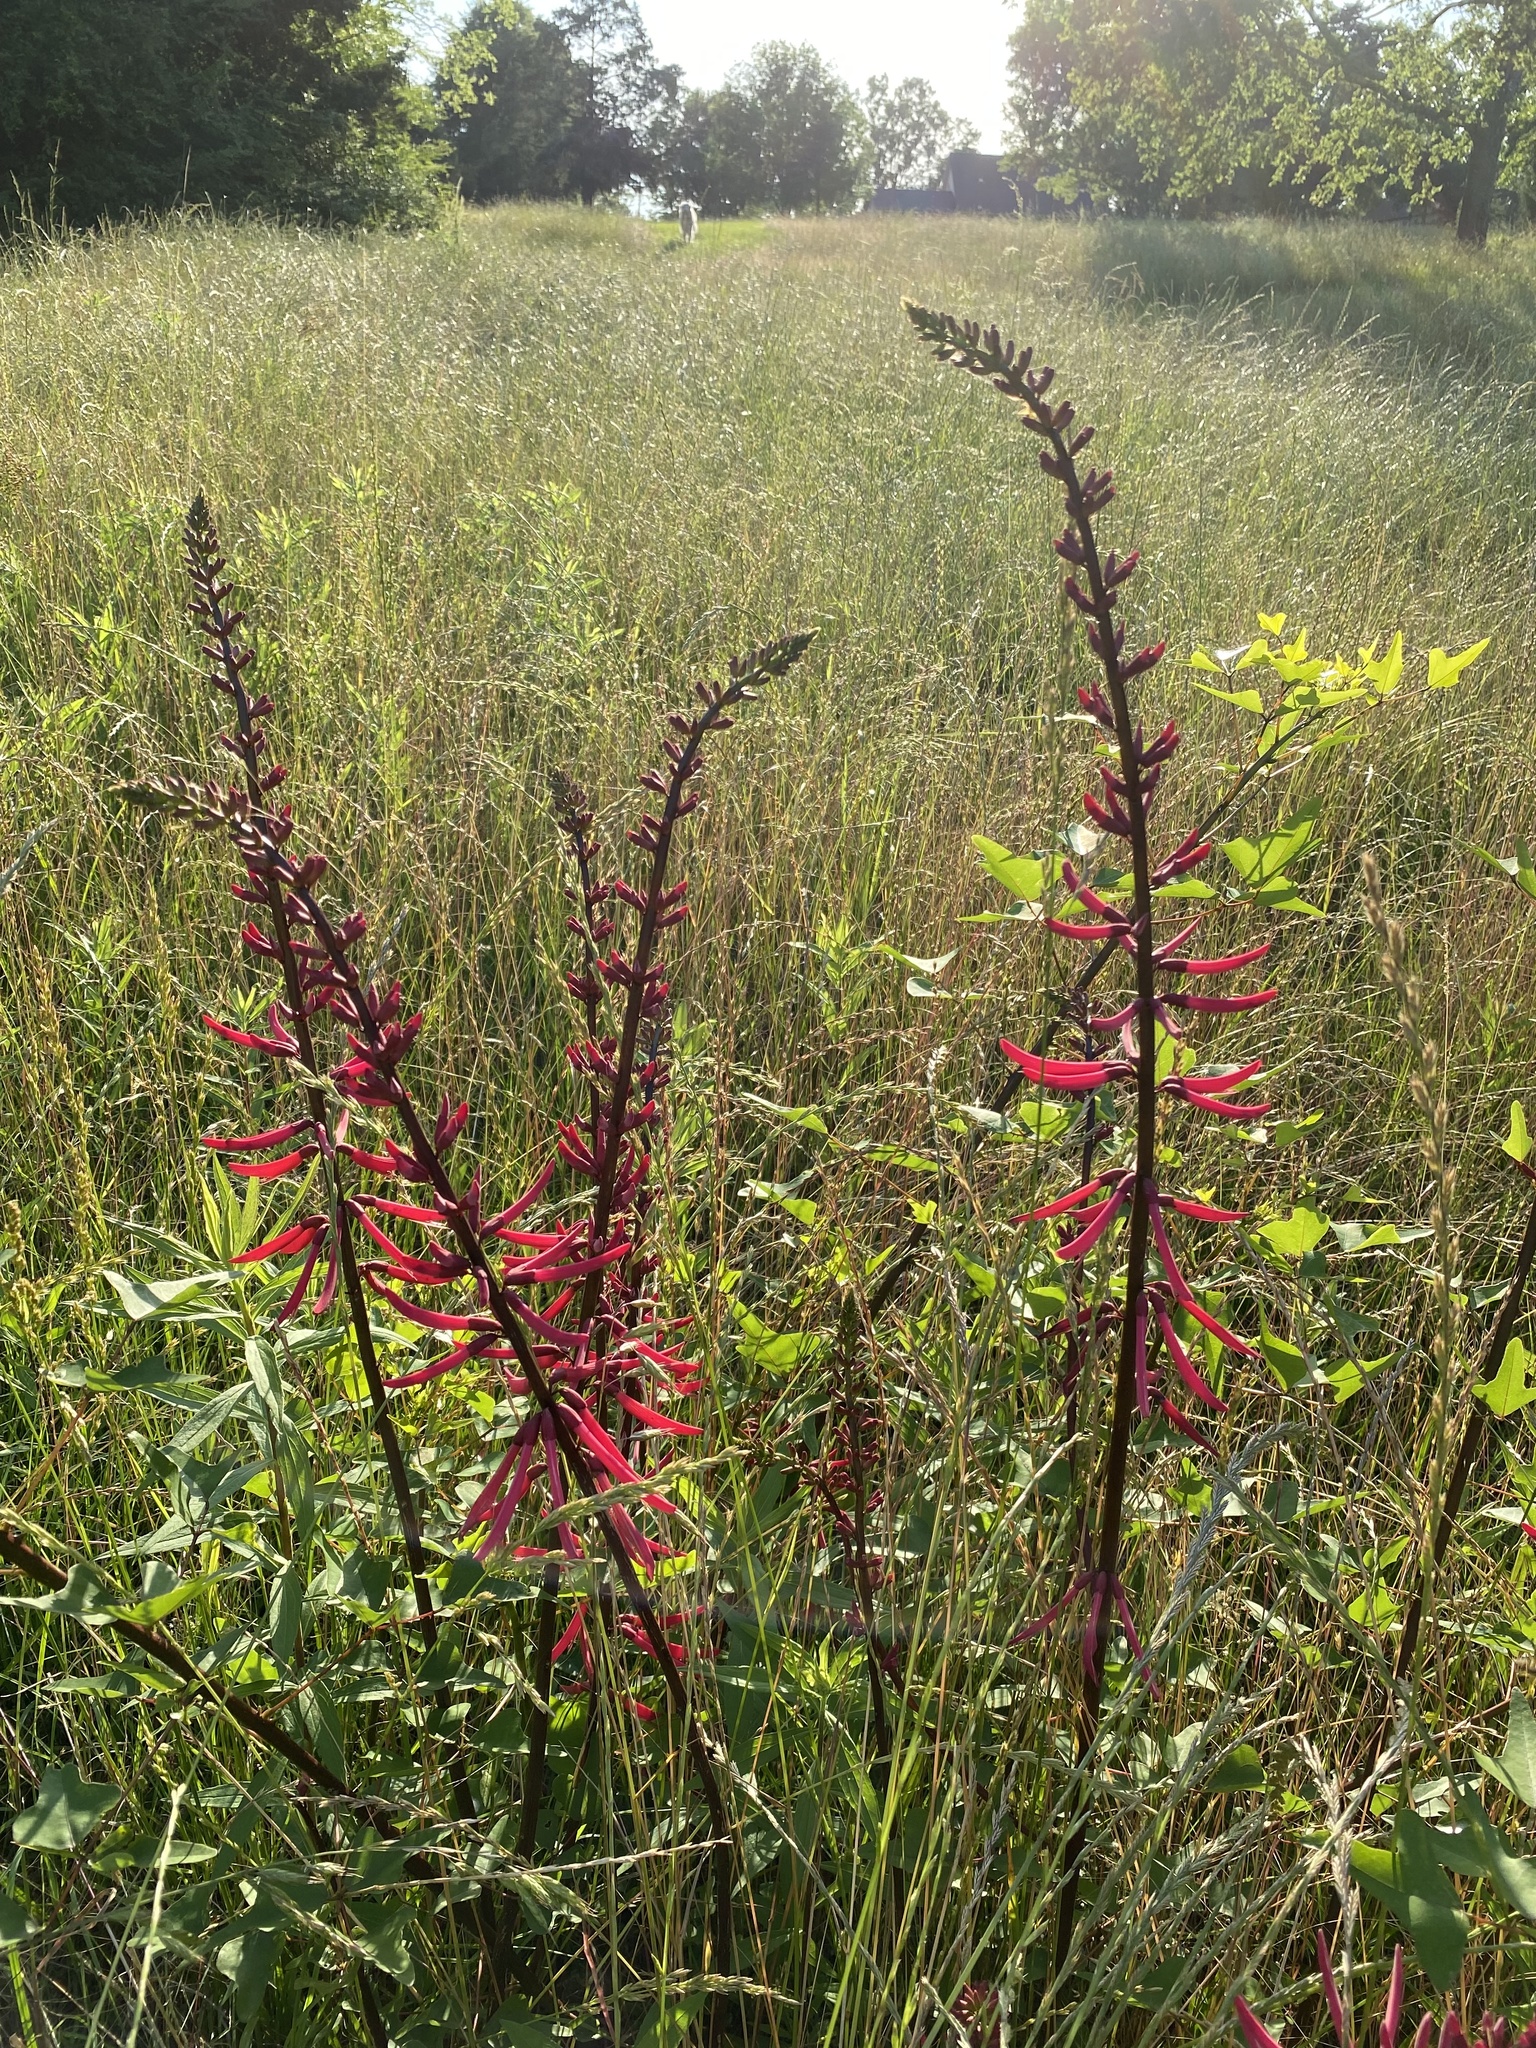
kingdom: Plantae
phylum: Tracheophyta
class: Magnoliopsida
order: Fabales
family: Fabaceae
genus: Erythrina
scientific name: Erythrina herbacea
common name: Coral-bean
